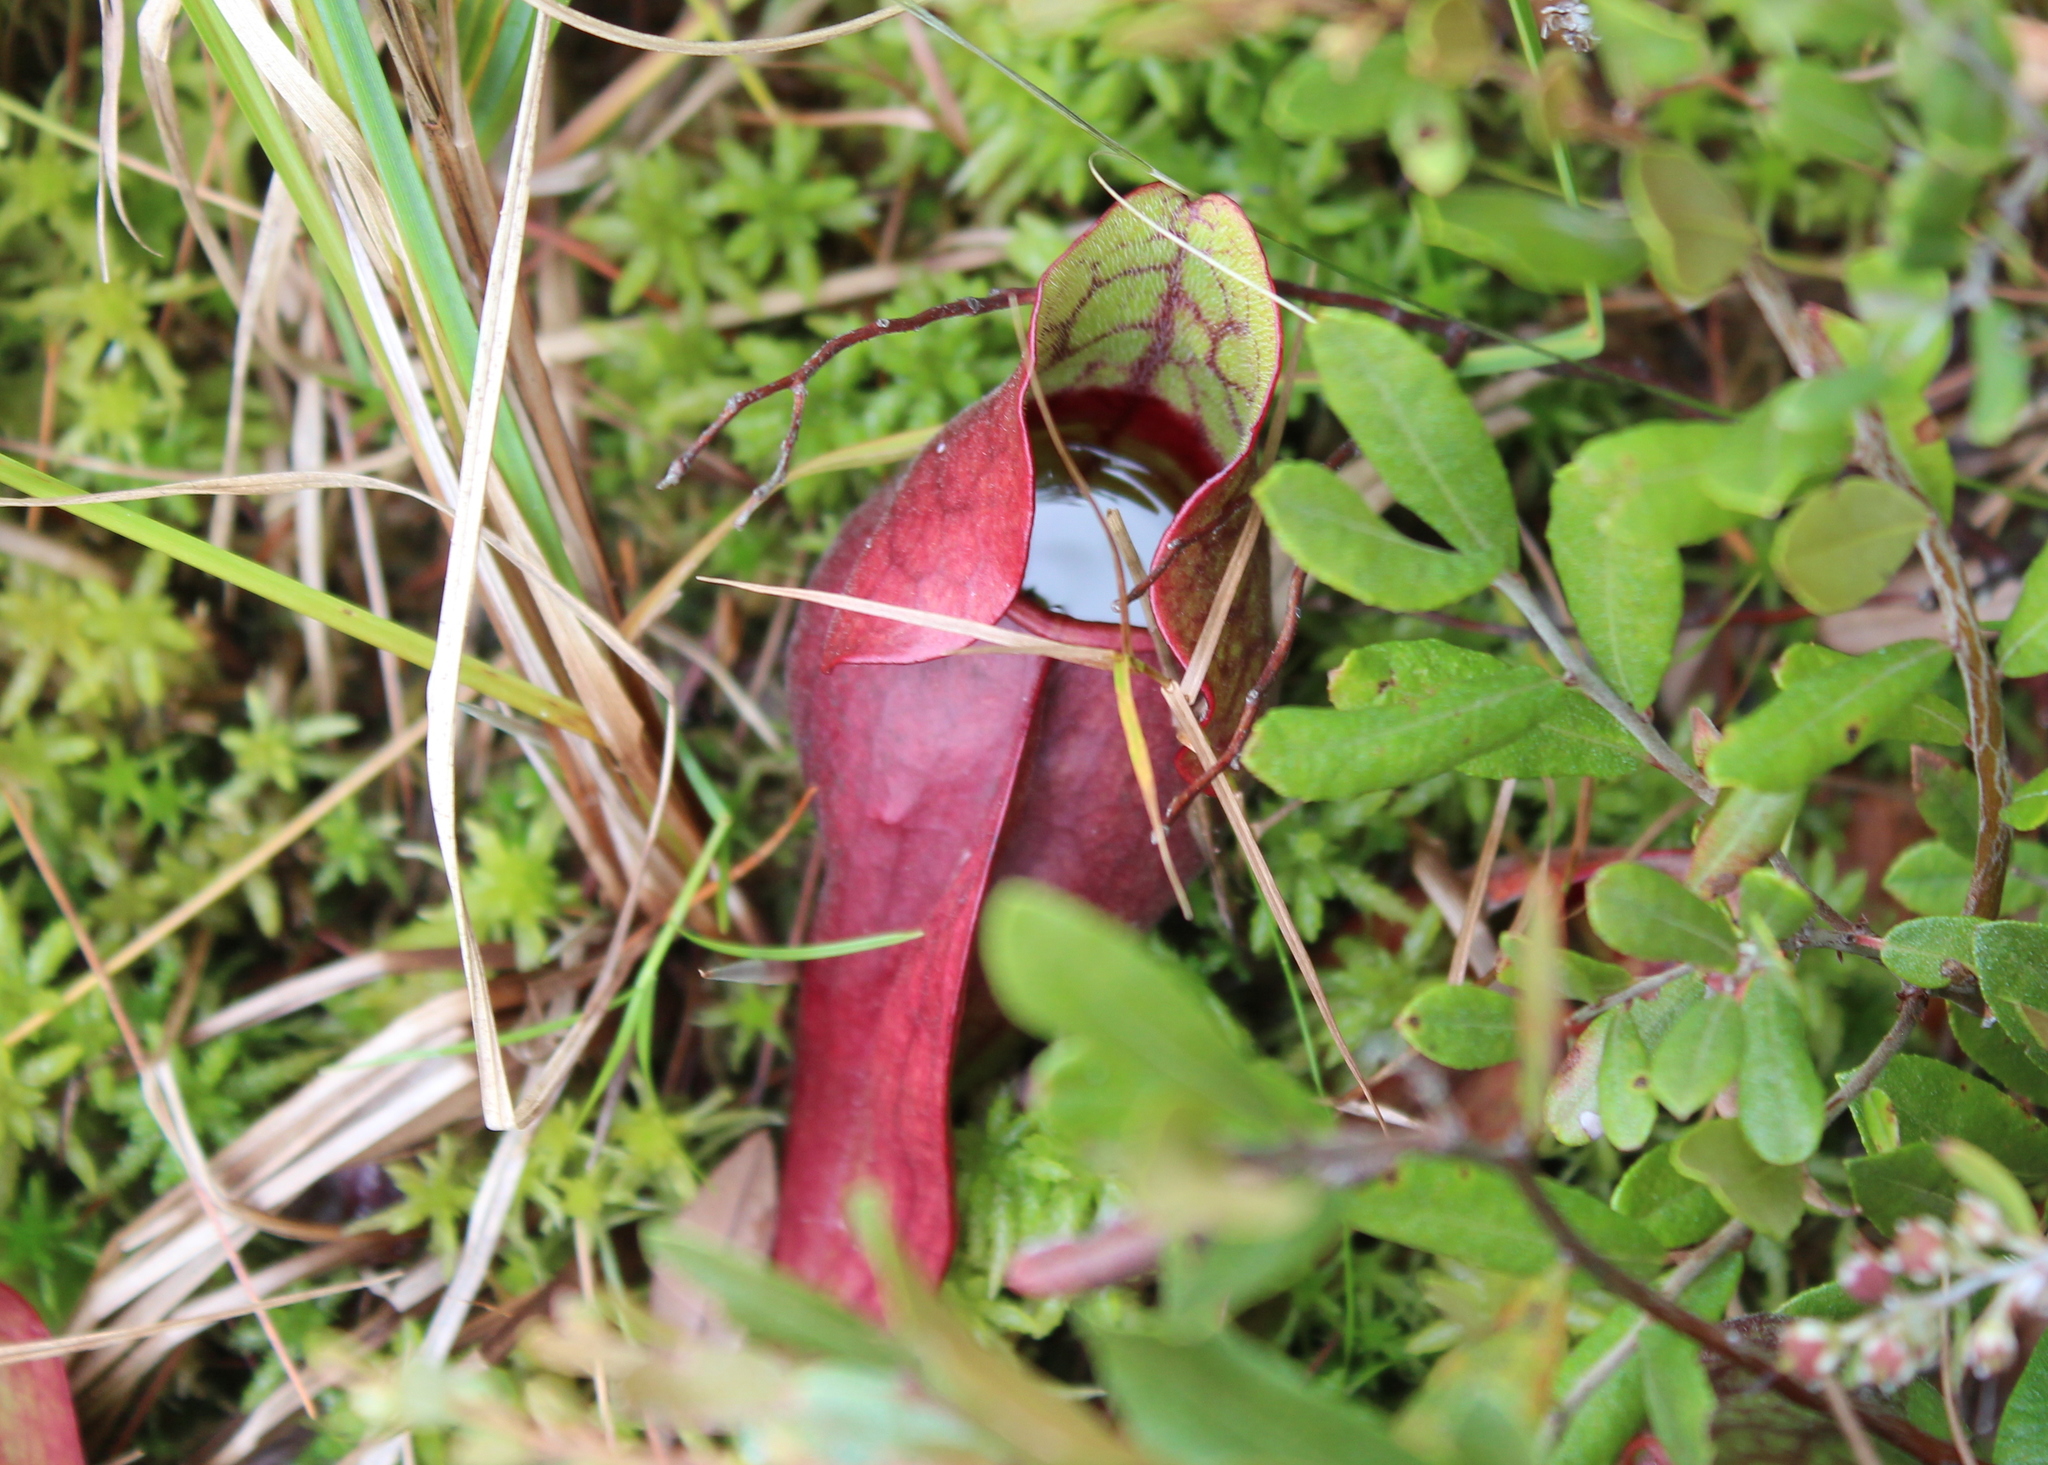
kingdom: Plantae
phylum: Tracheophyta
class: Magnoliopsida
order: Ericales
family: Sarraceniaceae
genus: Sarracenia
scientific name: Sarracenia purpurea
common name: Pitcherplant
